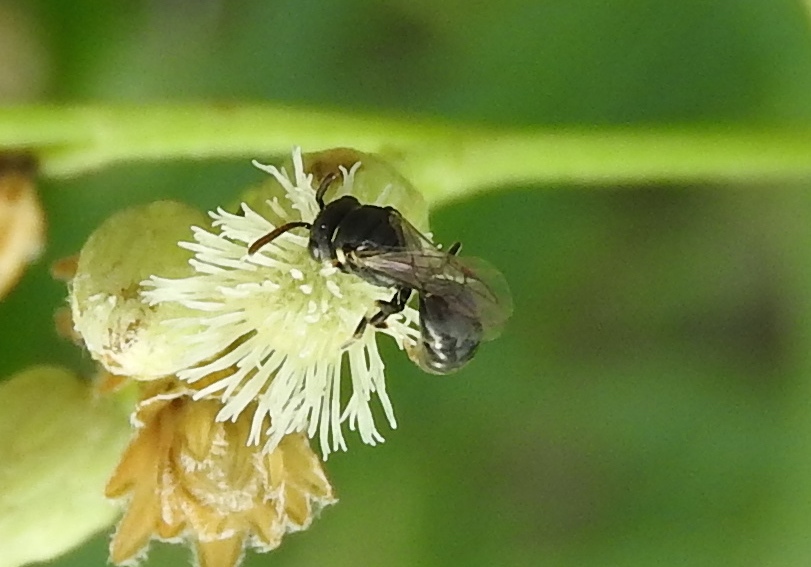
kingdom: Animalia
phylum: Arthropoda
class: Insecta
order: Hymenoptera
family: Colletidae
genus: Hylaeus
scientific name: Hylaeus
